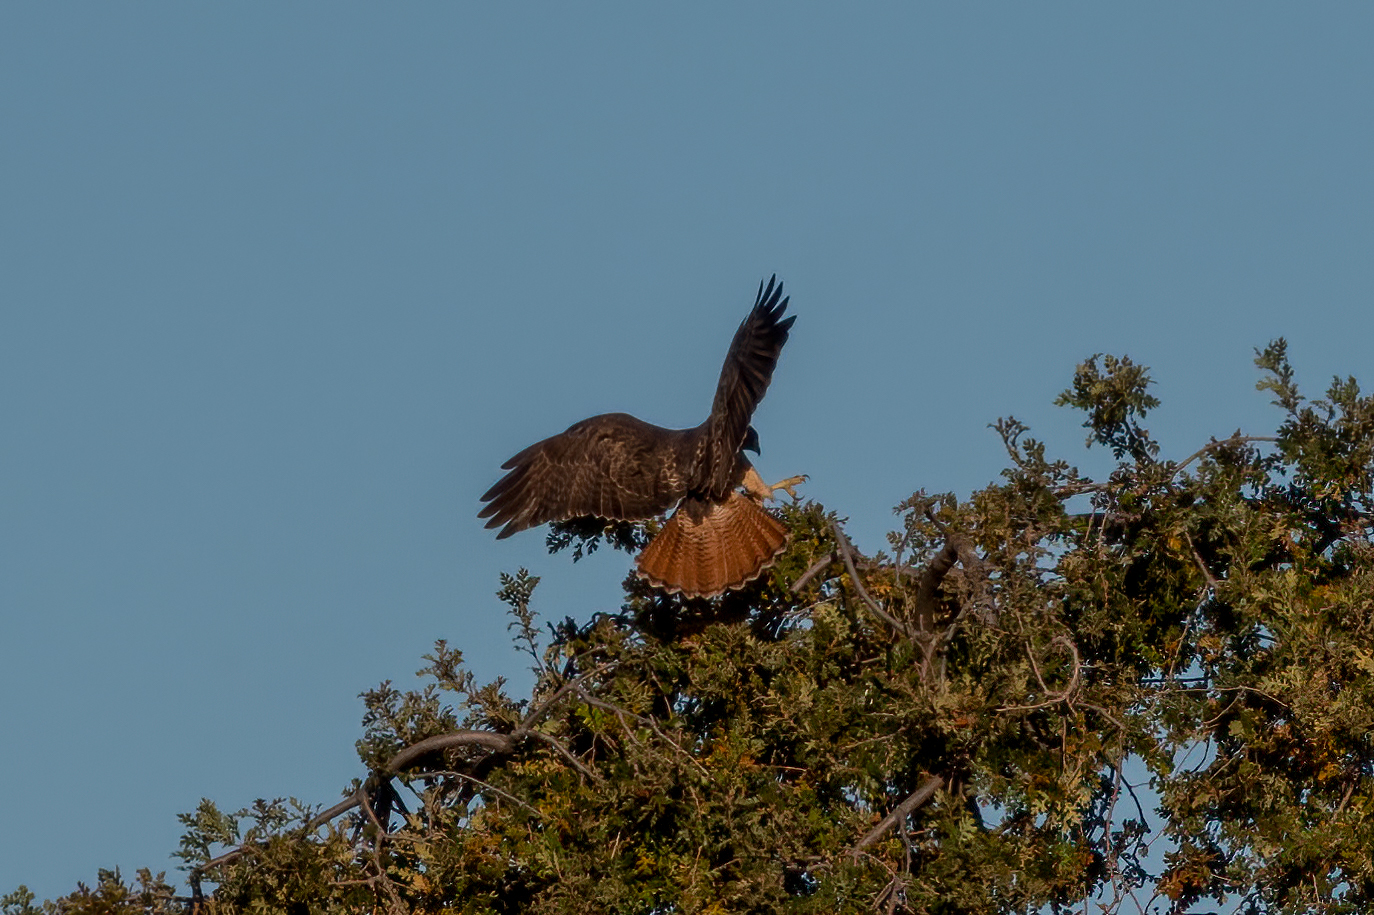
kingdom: Animalia
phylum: Chordata
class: Aves
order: Accipitriformes
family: Accipitridae
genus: Buteo
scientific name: Buteo jamaicensis
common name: Red-tailed hawk
